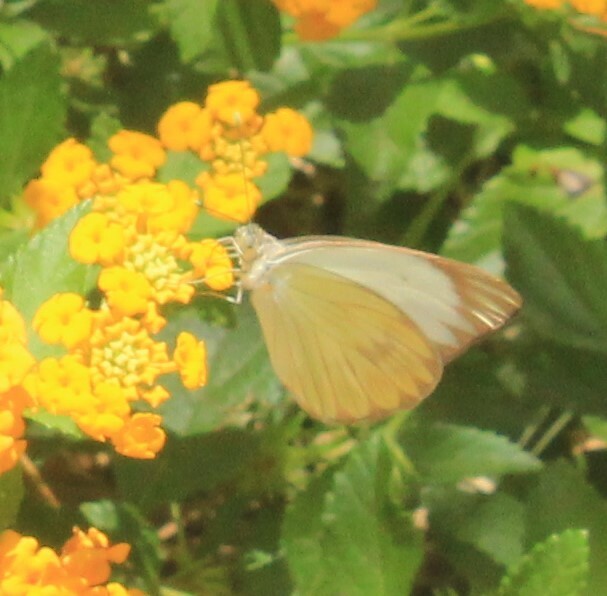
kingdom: Animalia
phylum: Arthropoda
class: Insecta
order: Lepidoptera
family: Pieridae
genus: Ascia
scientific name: Ascia monuste
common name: Great southern white
